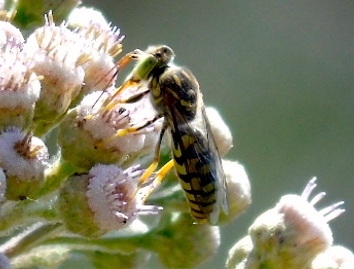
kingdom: Animalia
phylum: Arthropoda
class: Insecta
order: Hymenoptera
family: Crabronidae
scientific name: Crabronidae
